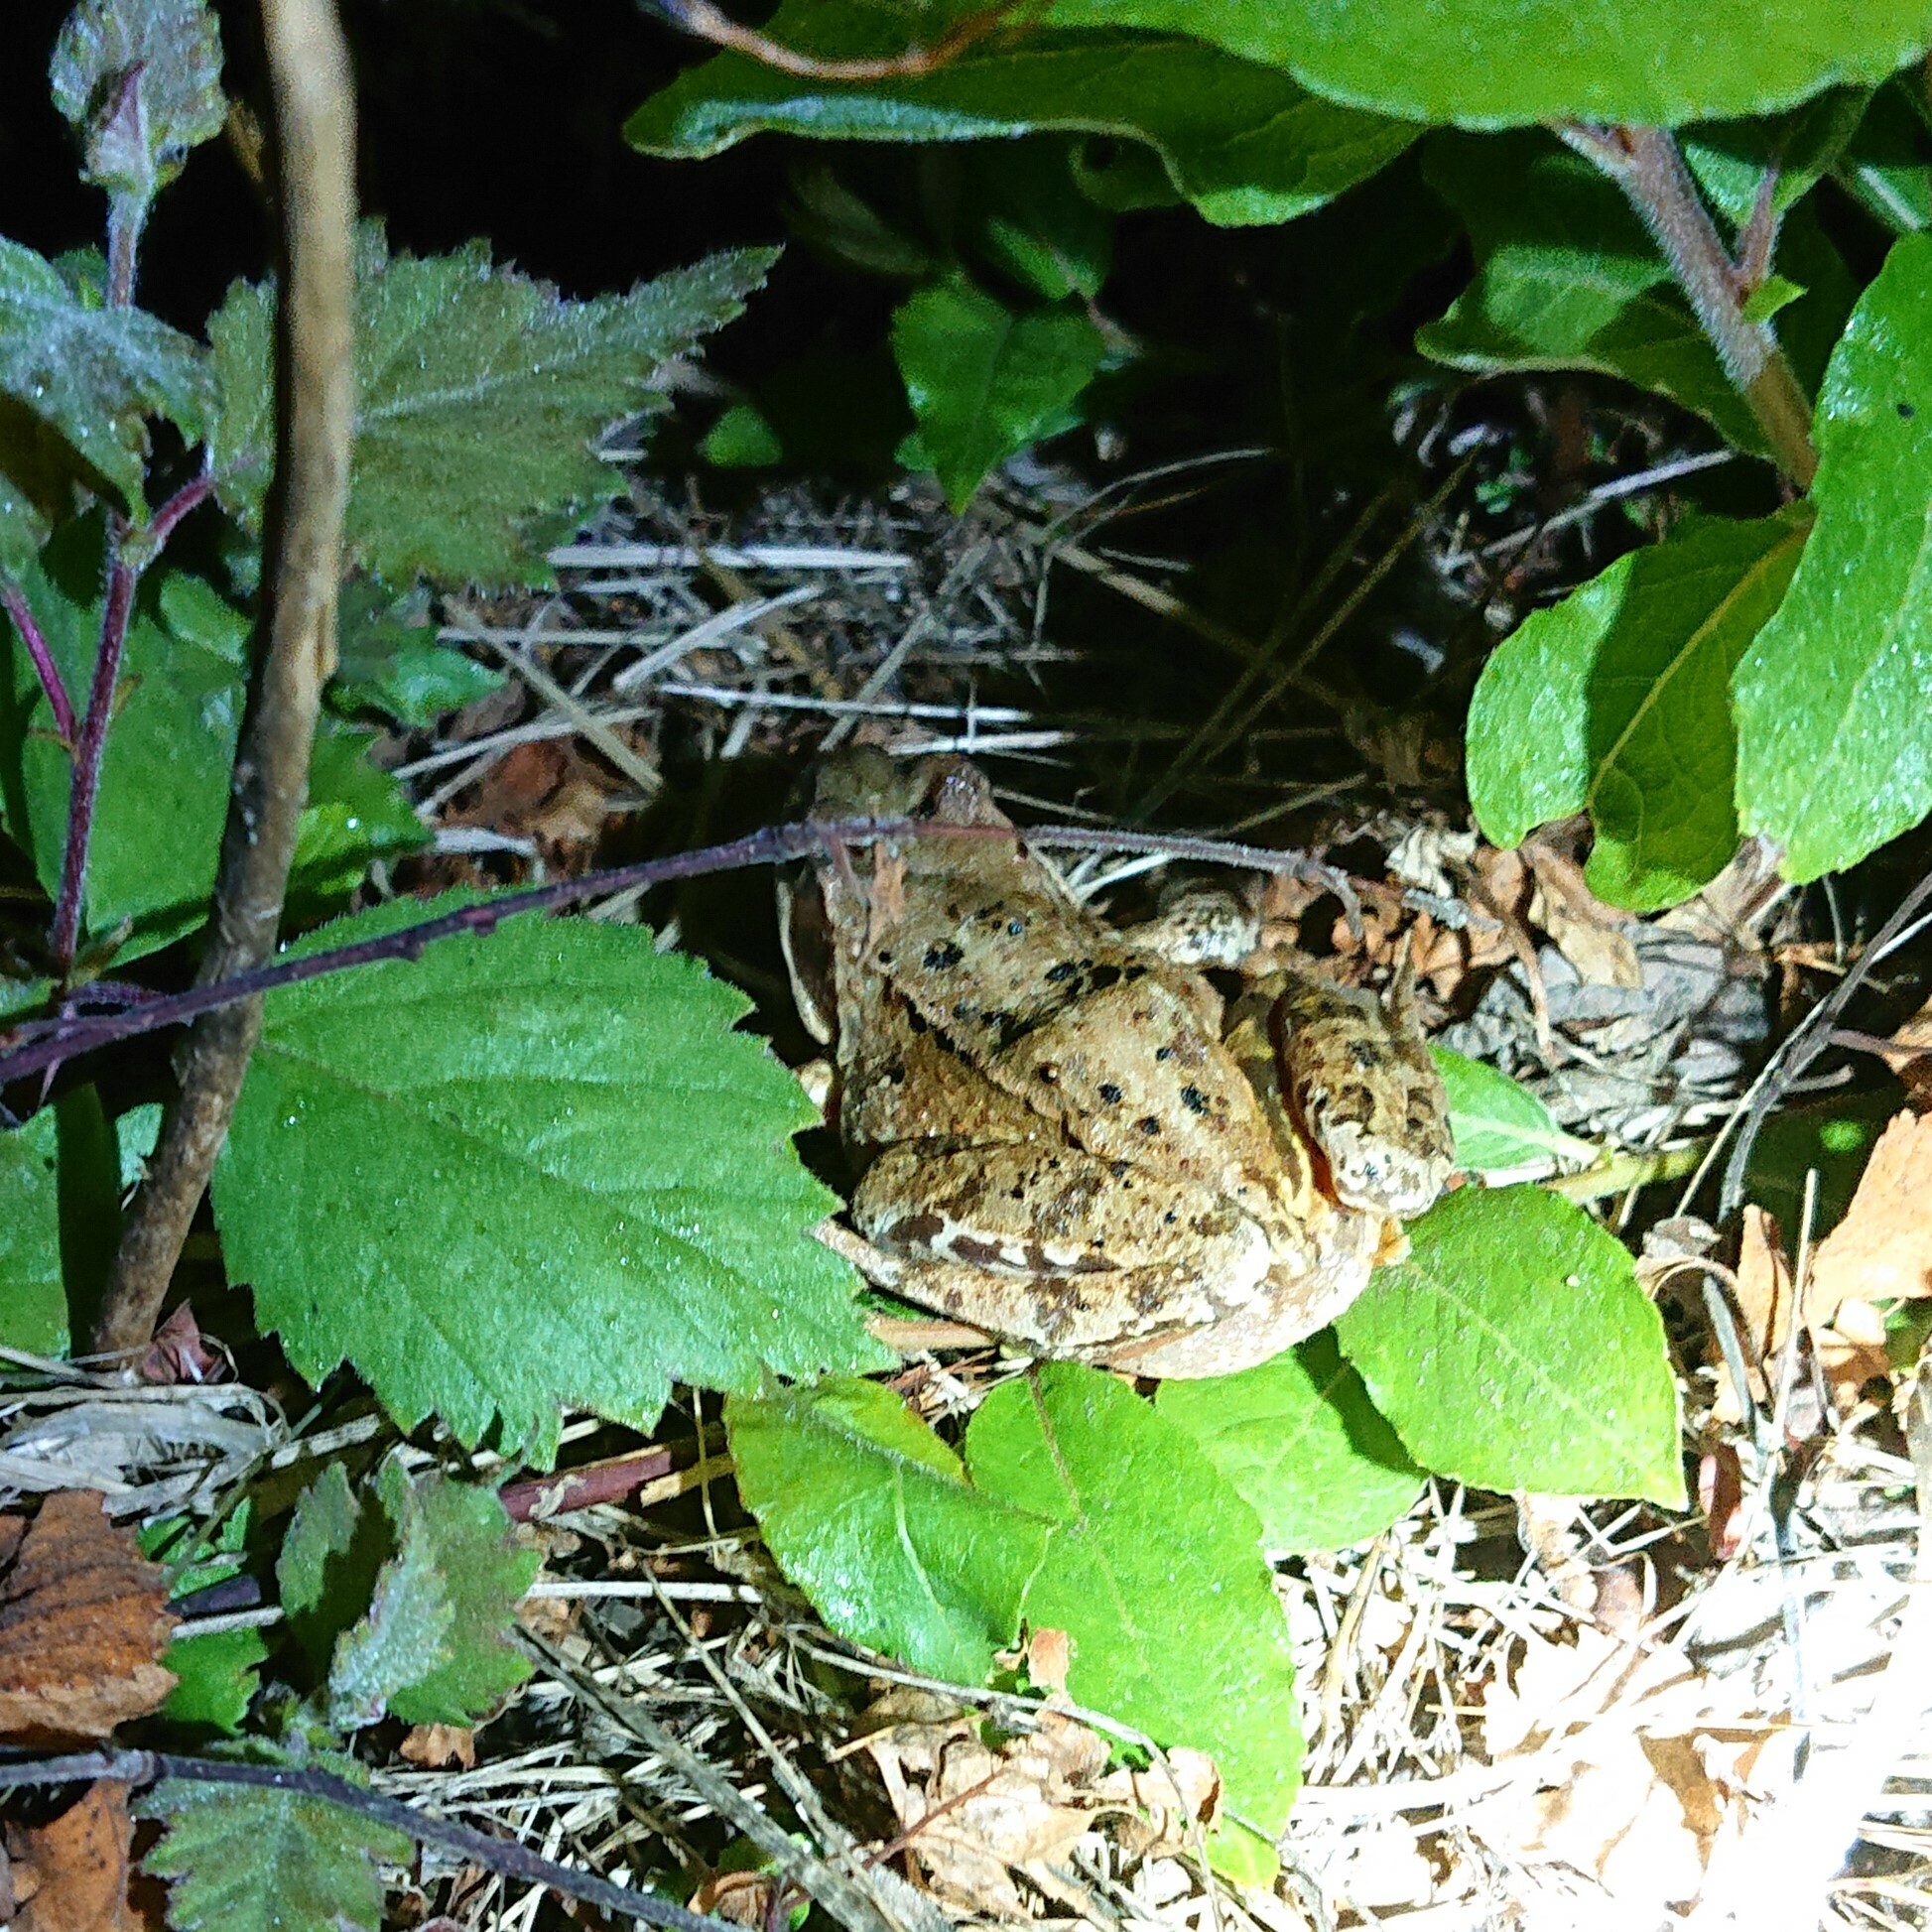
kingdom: Animalia
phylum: Chordata
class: Amphibia
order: Anura
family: Ranidae
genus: Rana
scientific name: Rana temporaria
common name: Common frog
